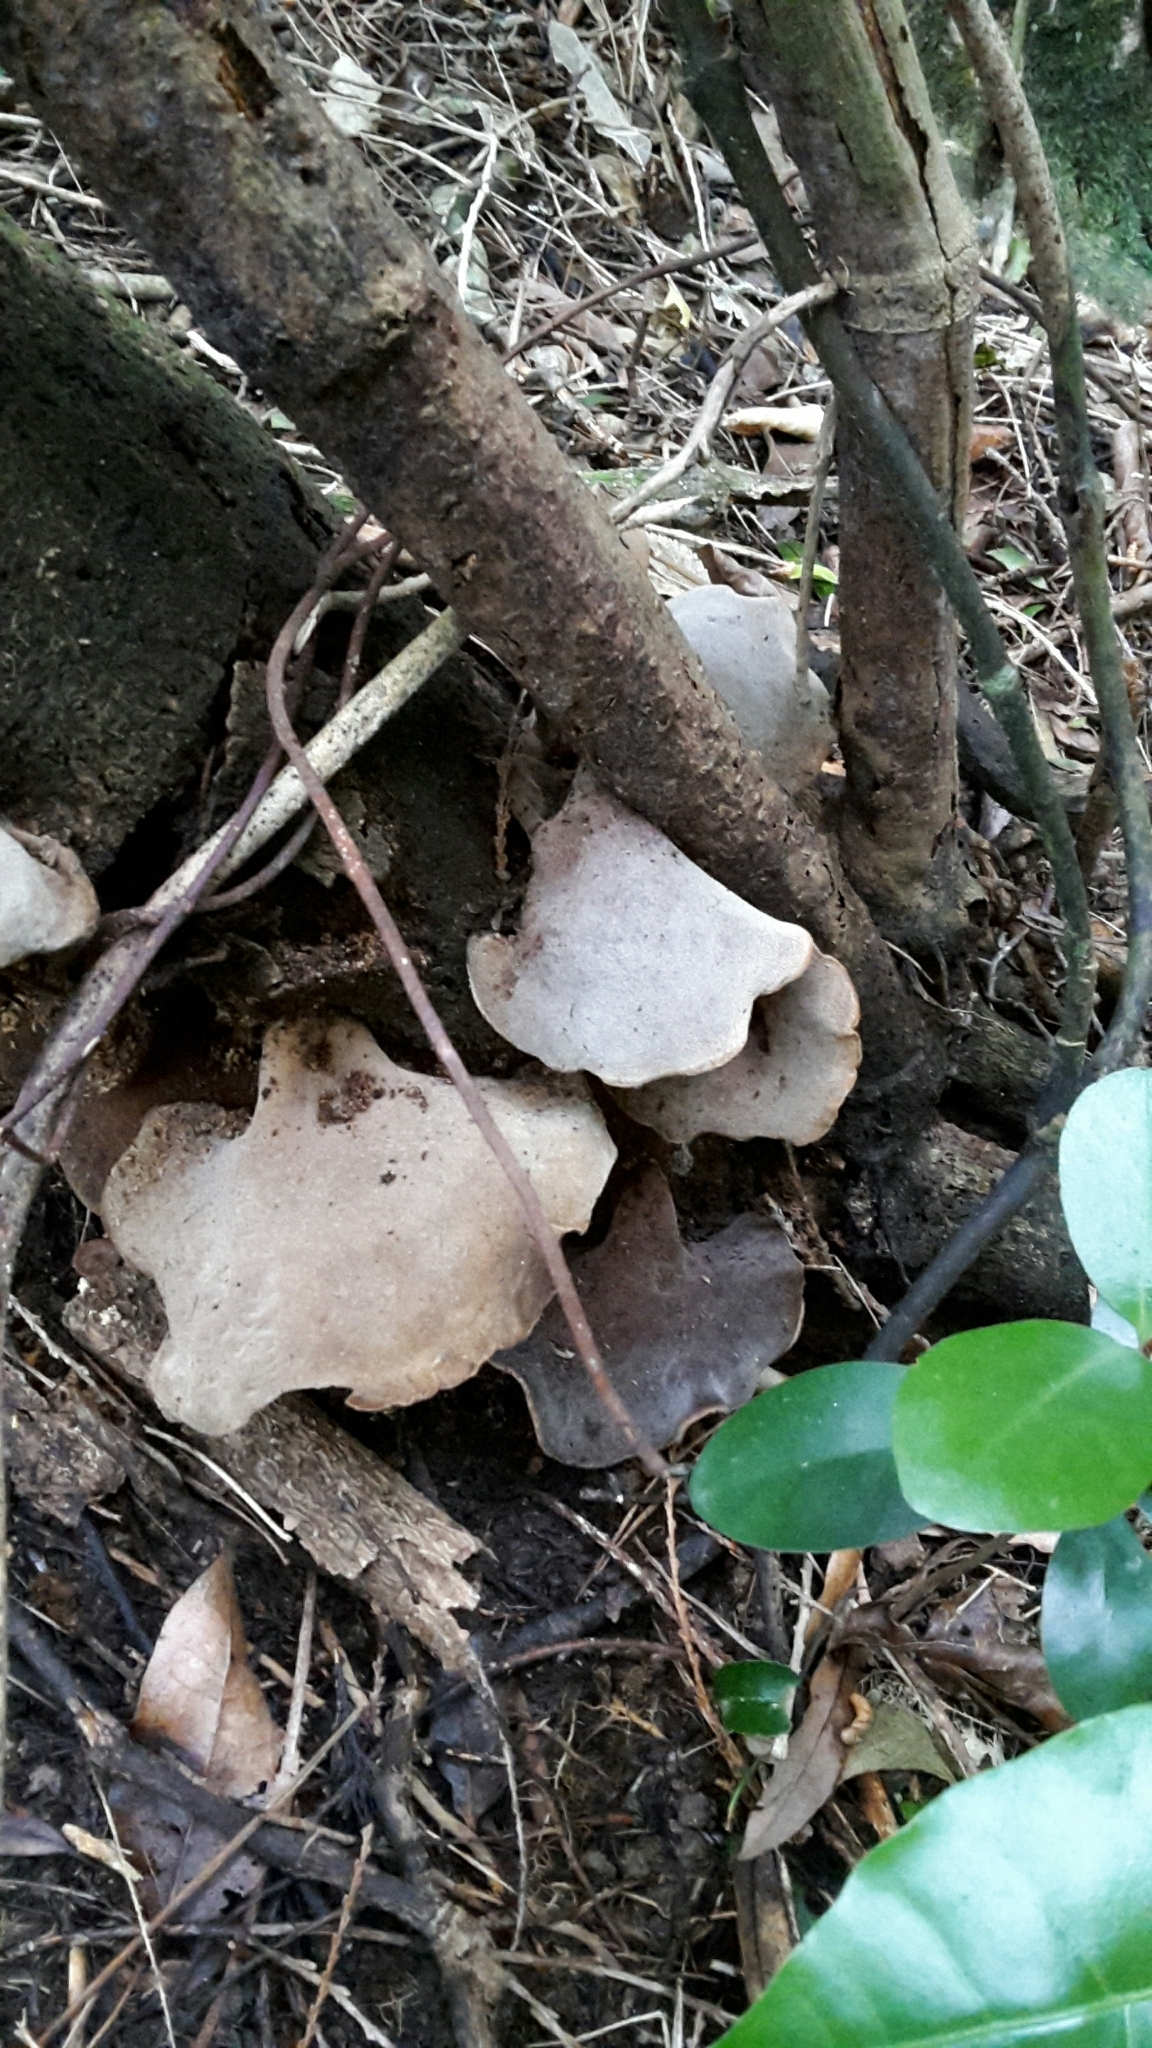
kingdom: Fungi
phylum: Basidiomycota
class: Agaricomycetes
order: Auriculariales
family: Auriculariaceae
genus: Auricularia
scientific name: Auricularia cornea
